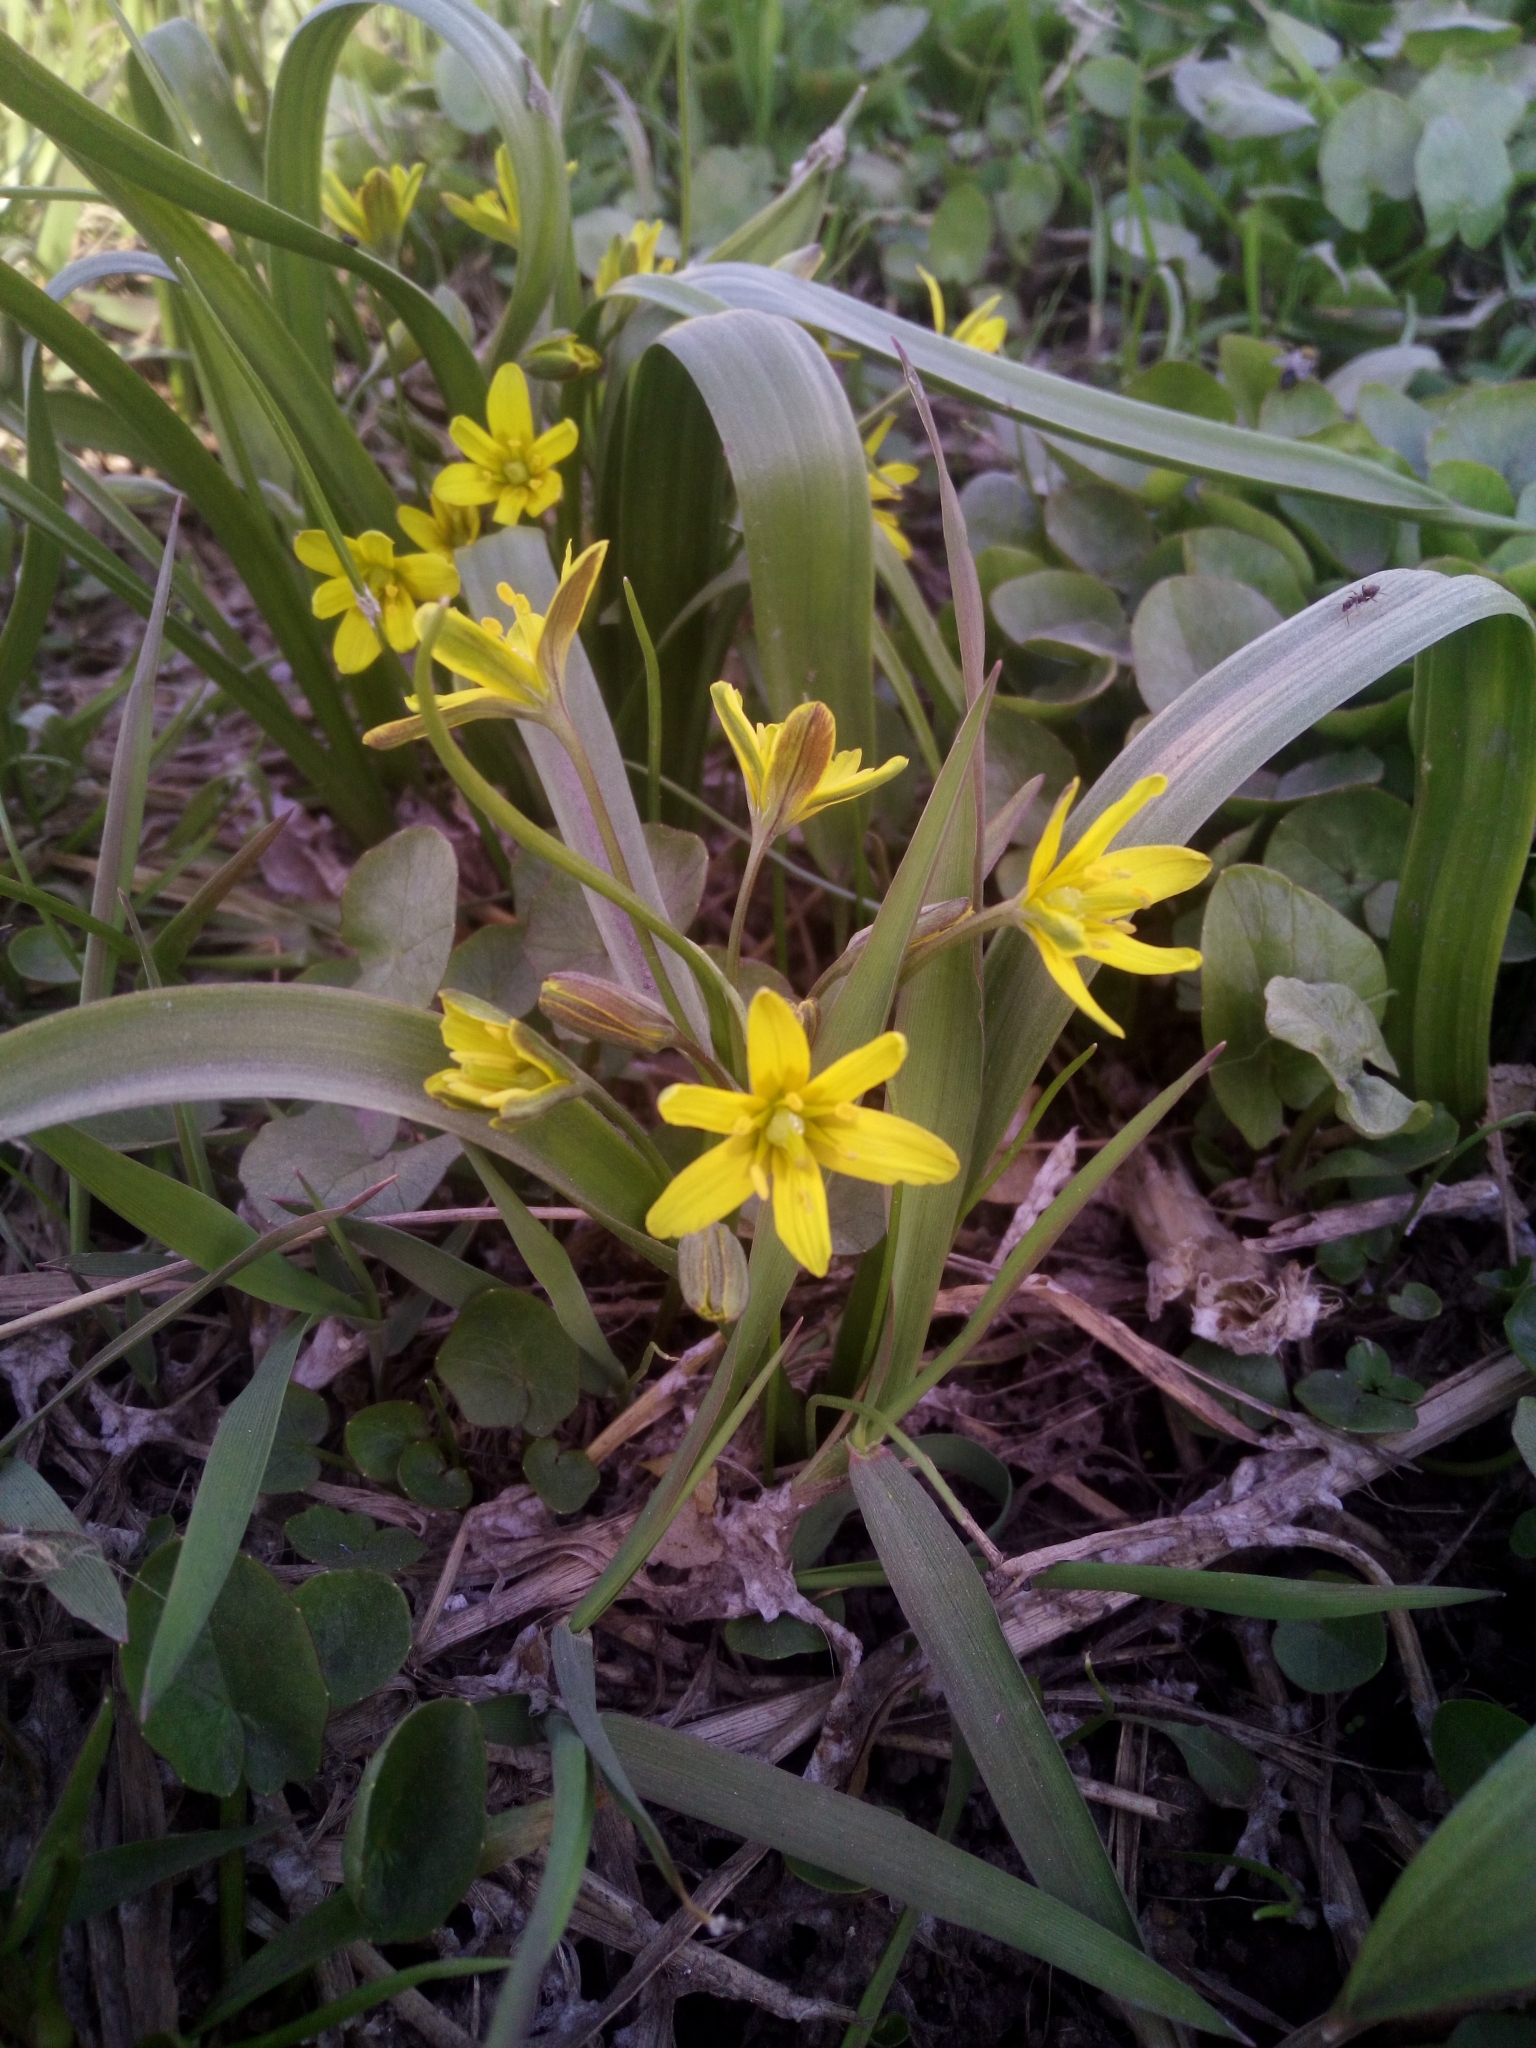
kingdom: Plantae
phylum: Tracheophyta
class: Liliopsida
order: Liliales
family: Liliaceae
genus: Gagea
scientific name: Gagea lutea
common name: Yellow star-of-bethlehem
